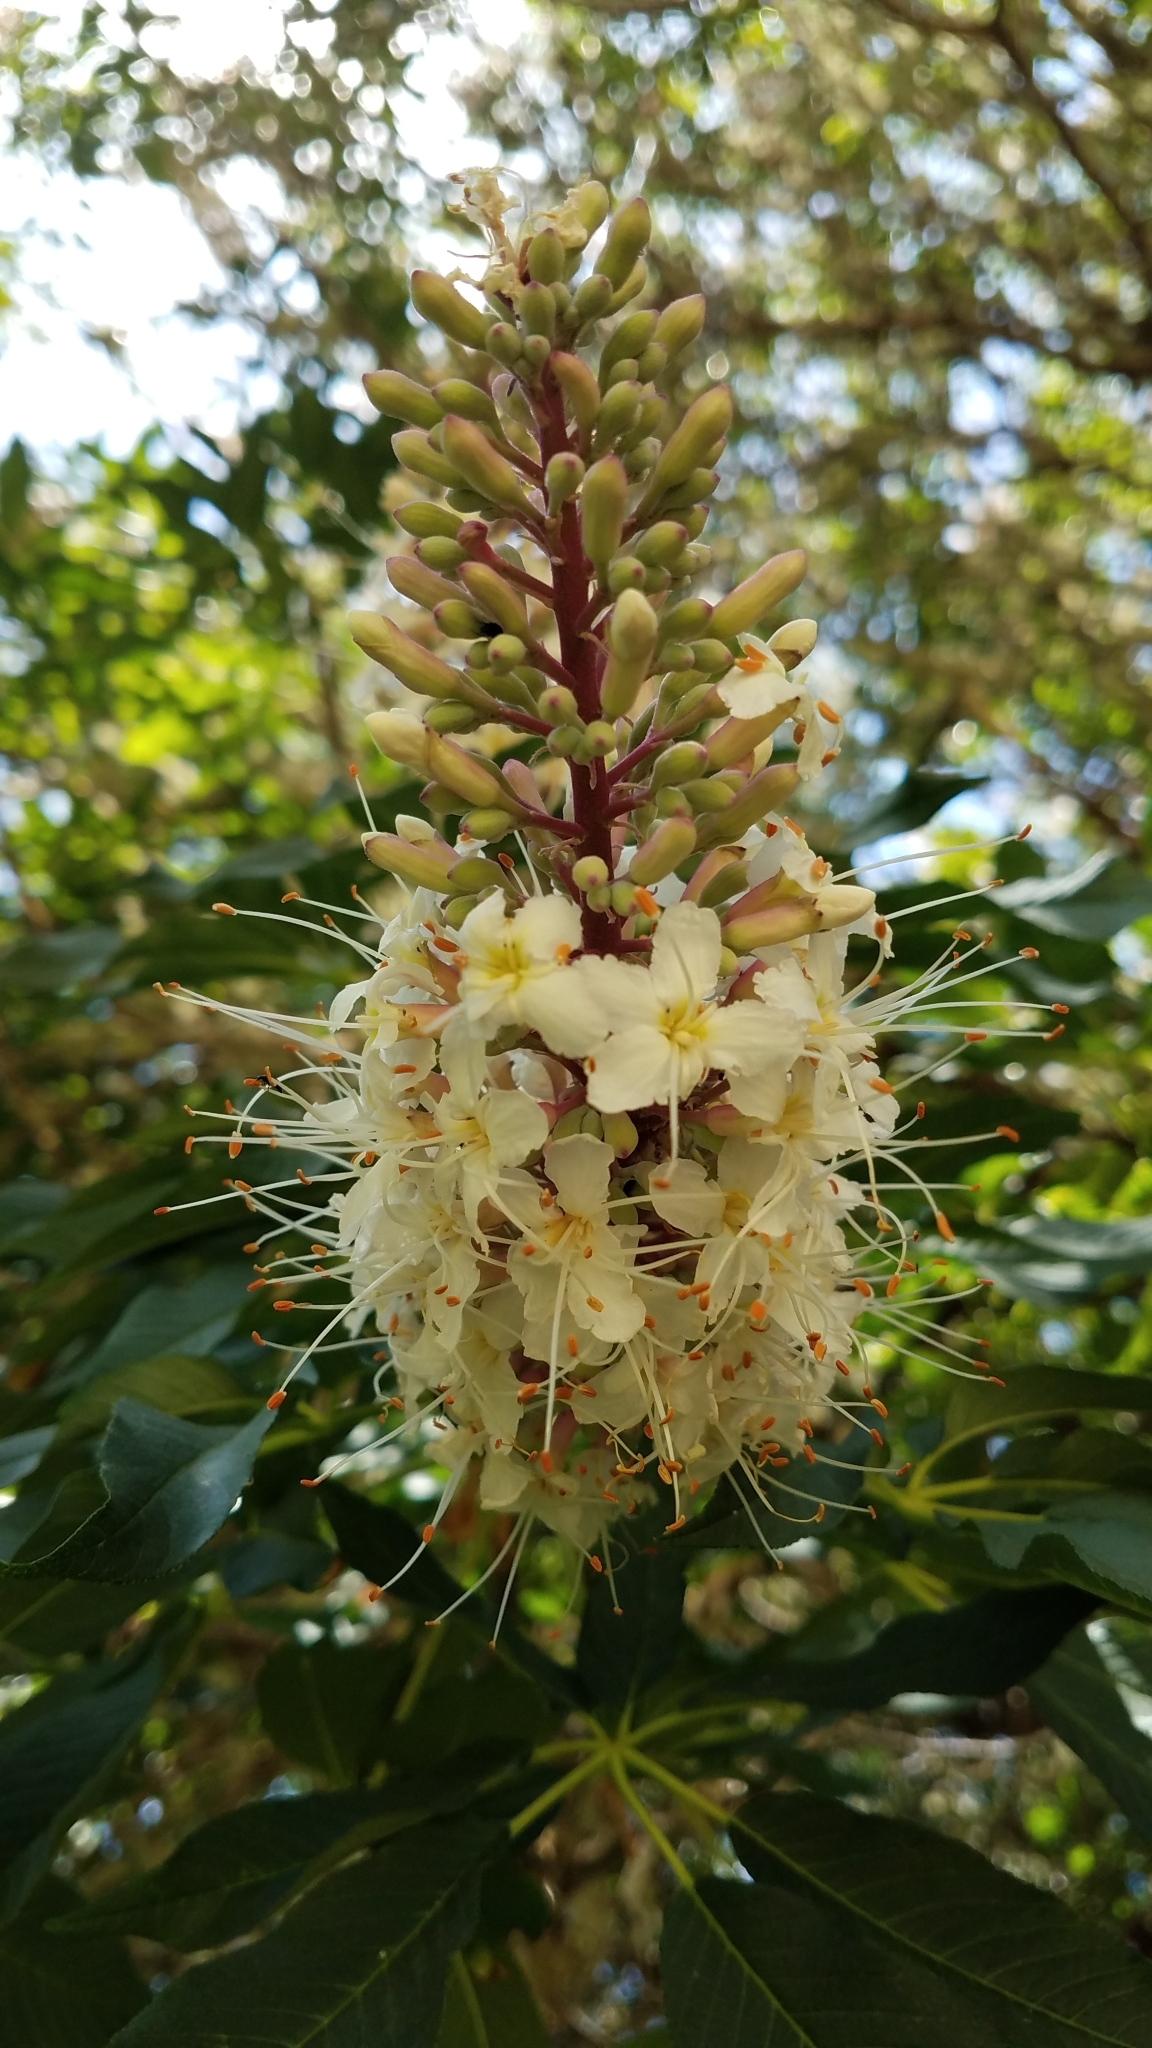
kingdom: Plantae
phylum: Tracheophyta
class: Magnoliopsida
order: Sapindales
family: Sapindaceae
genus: Aesculus
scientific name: Aesculus californica
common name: California buckeye
